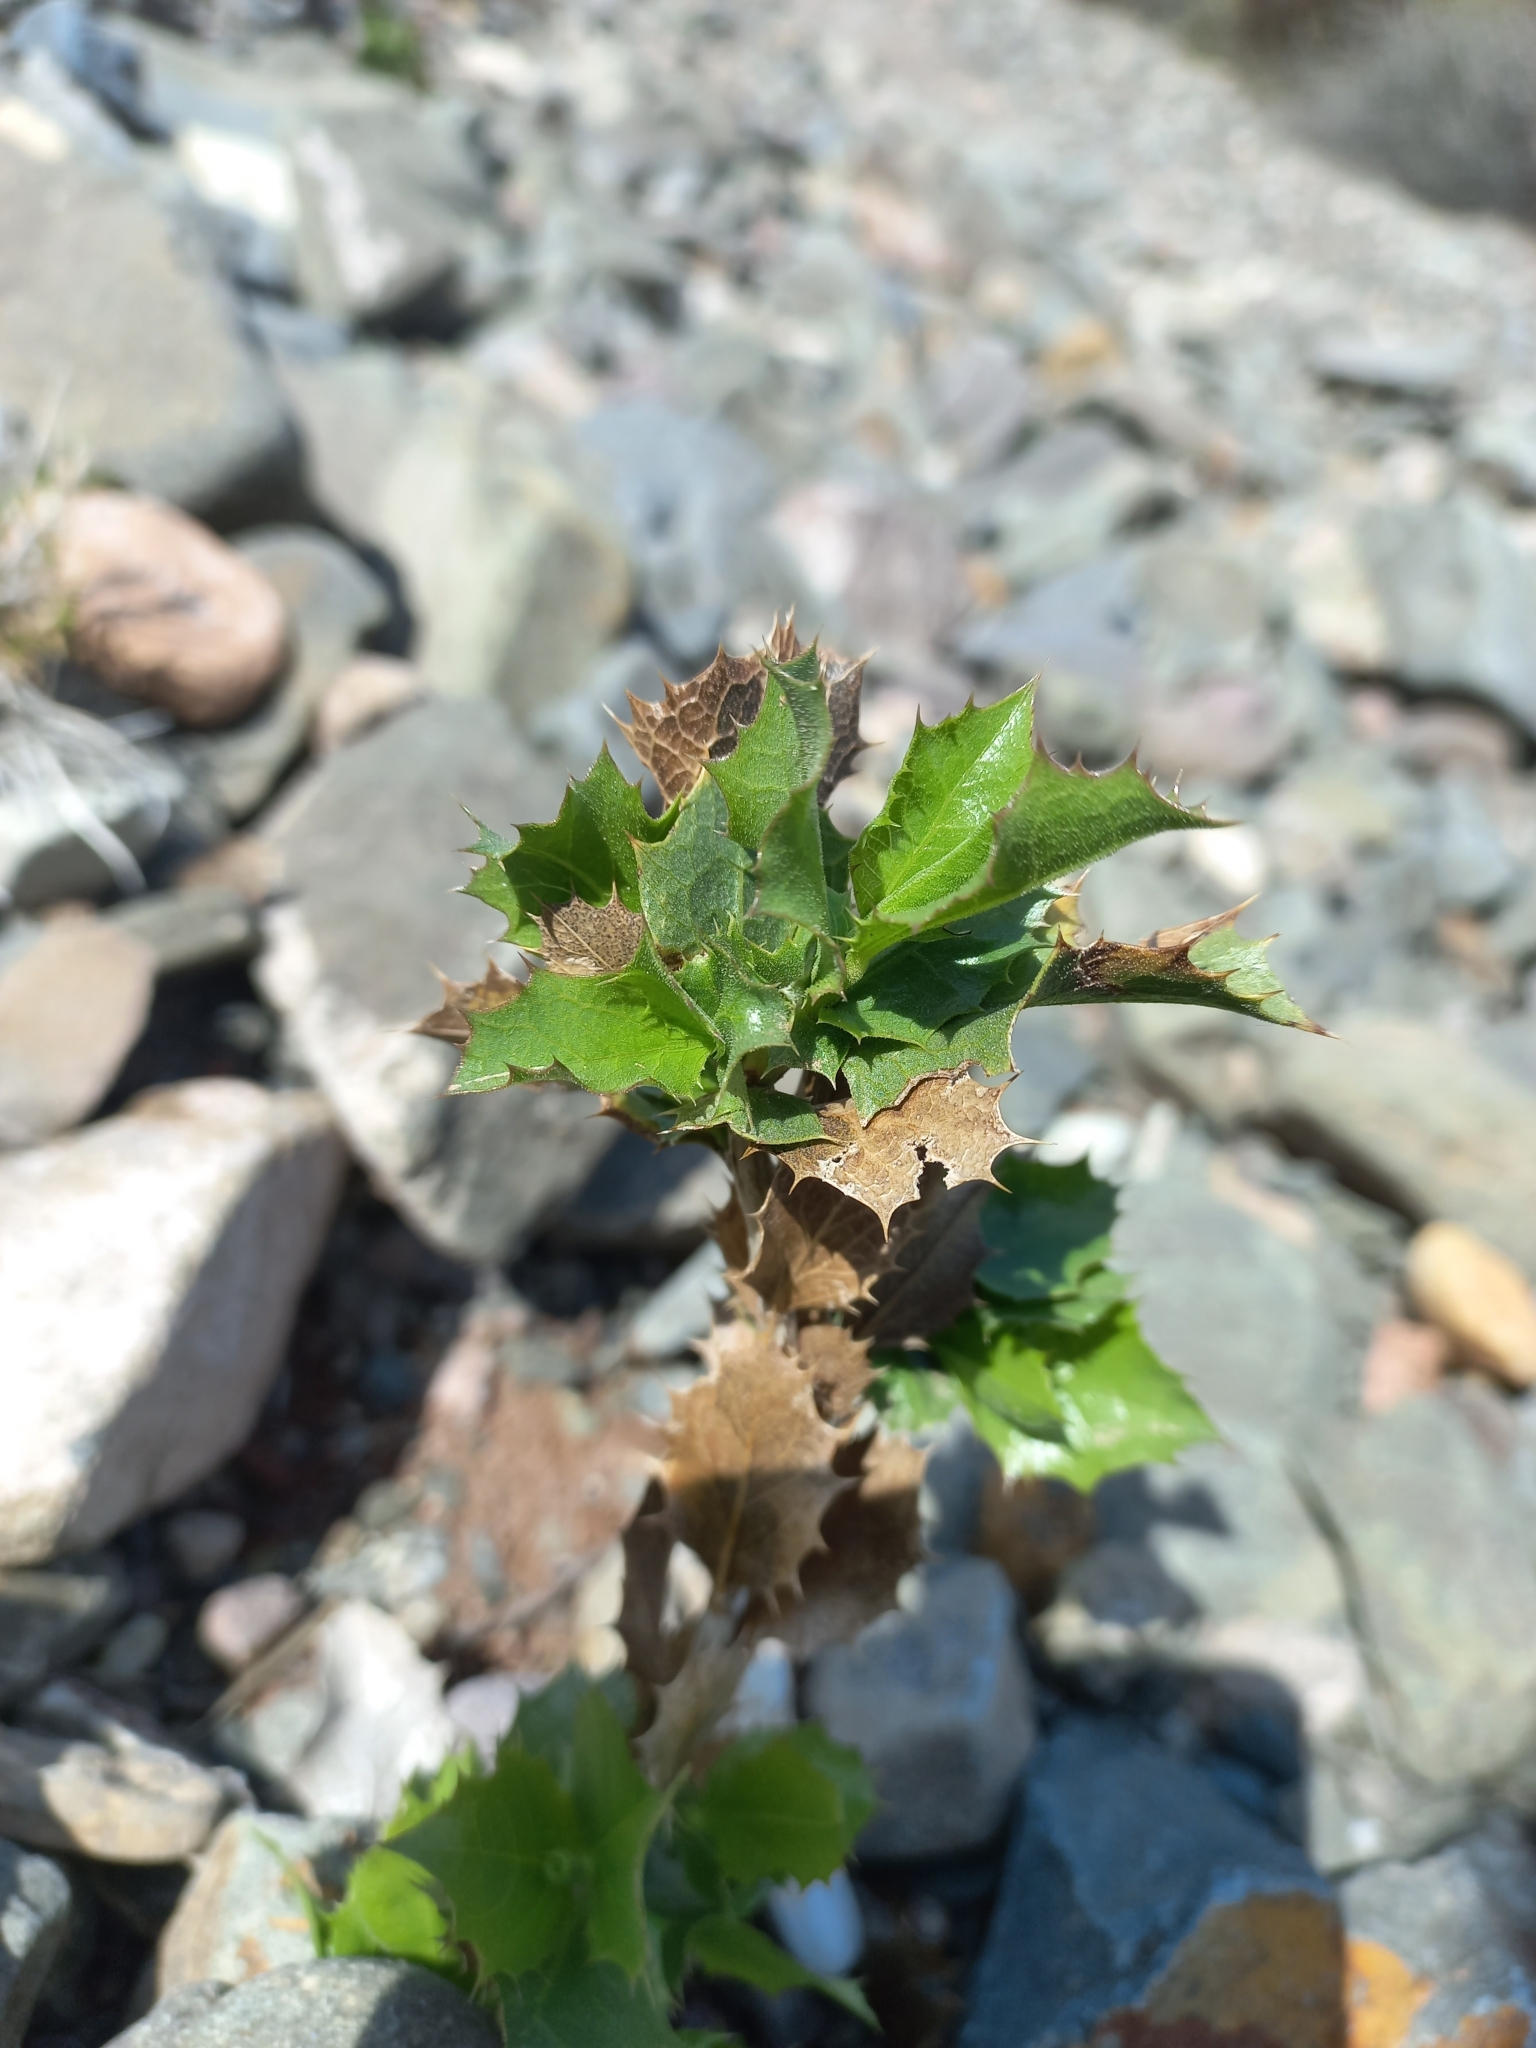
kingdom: Plantae
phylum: Tracheophyta
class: Magnoliopsida
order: Asterales
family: Asteraceae
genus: Proustia
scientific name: Proustia cuneifolia
